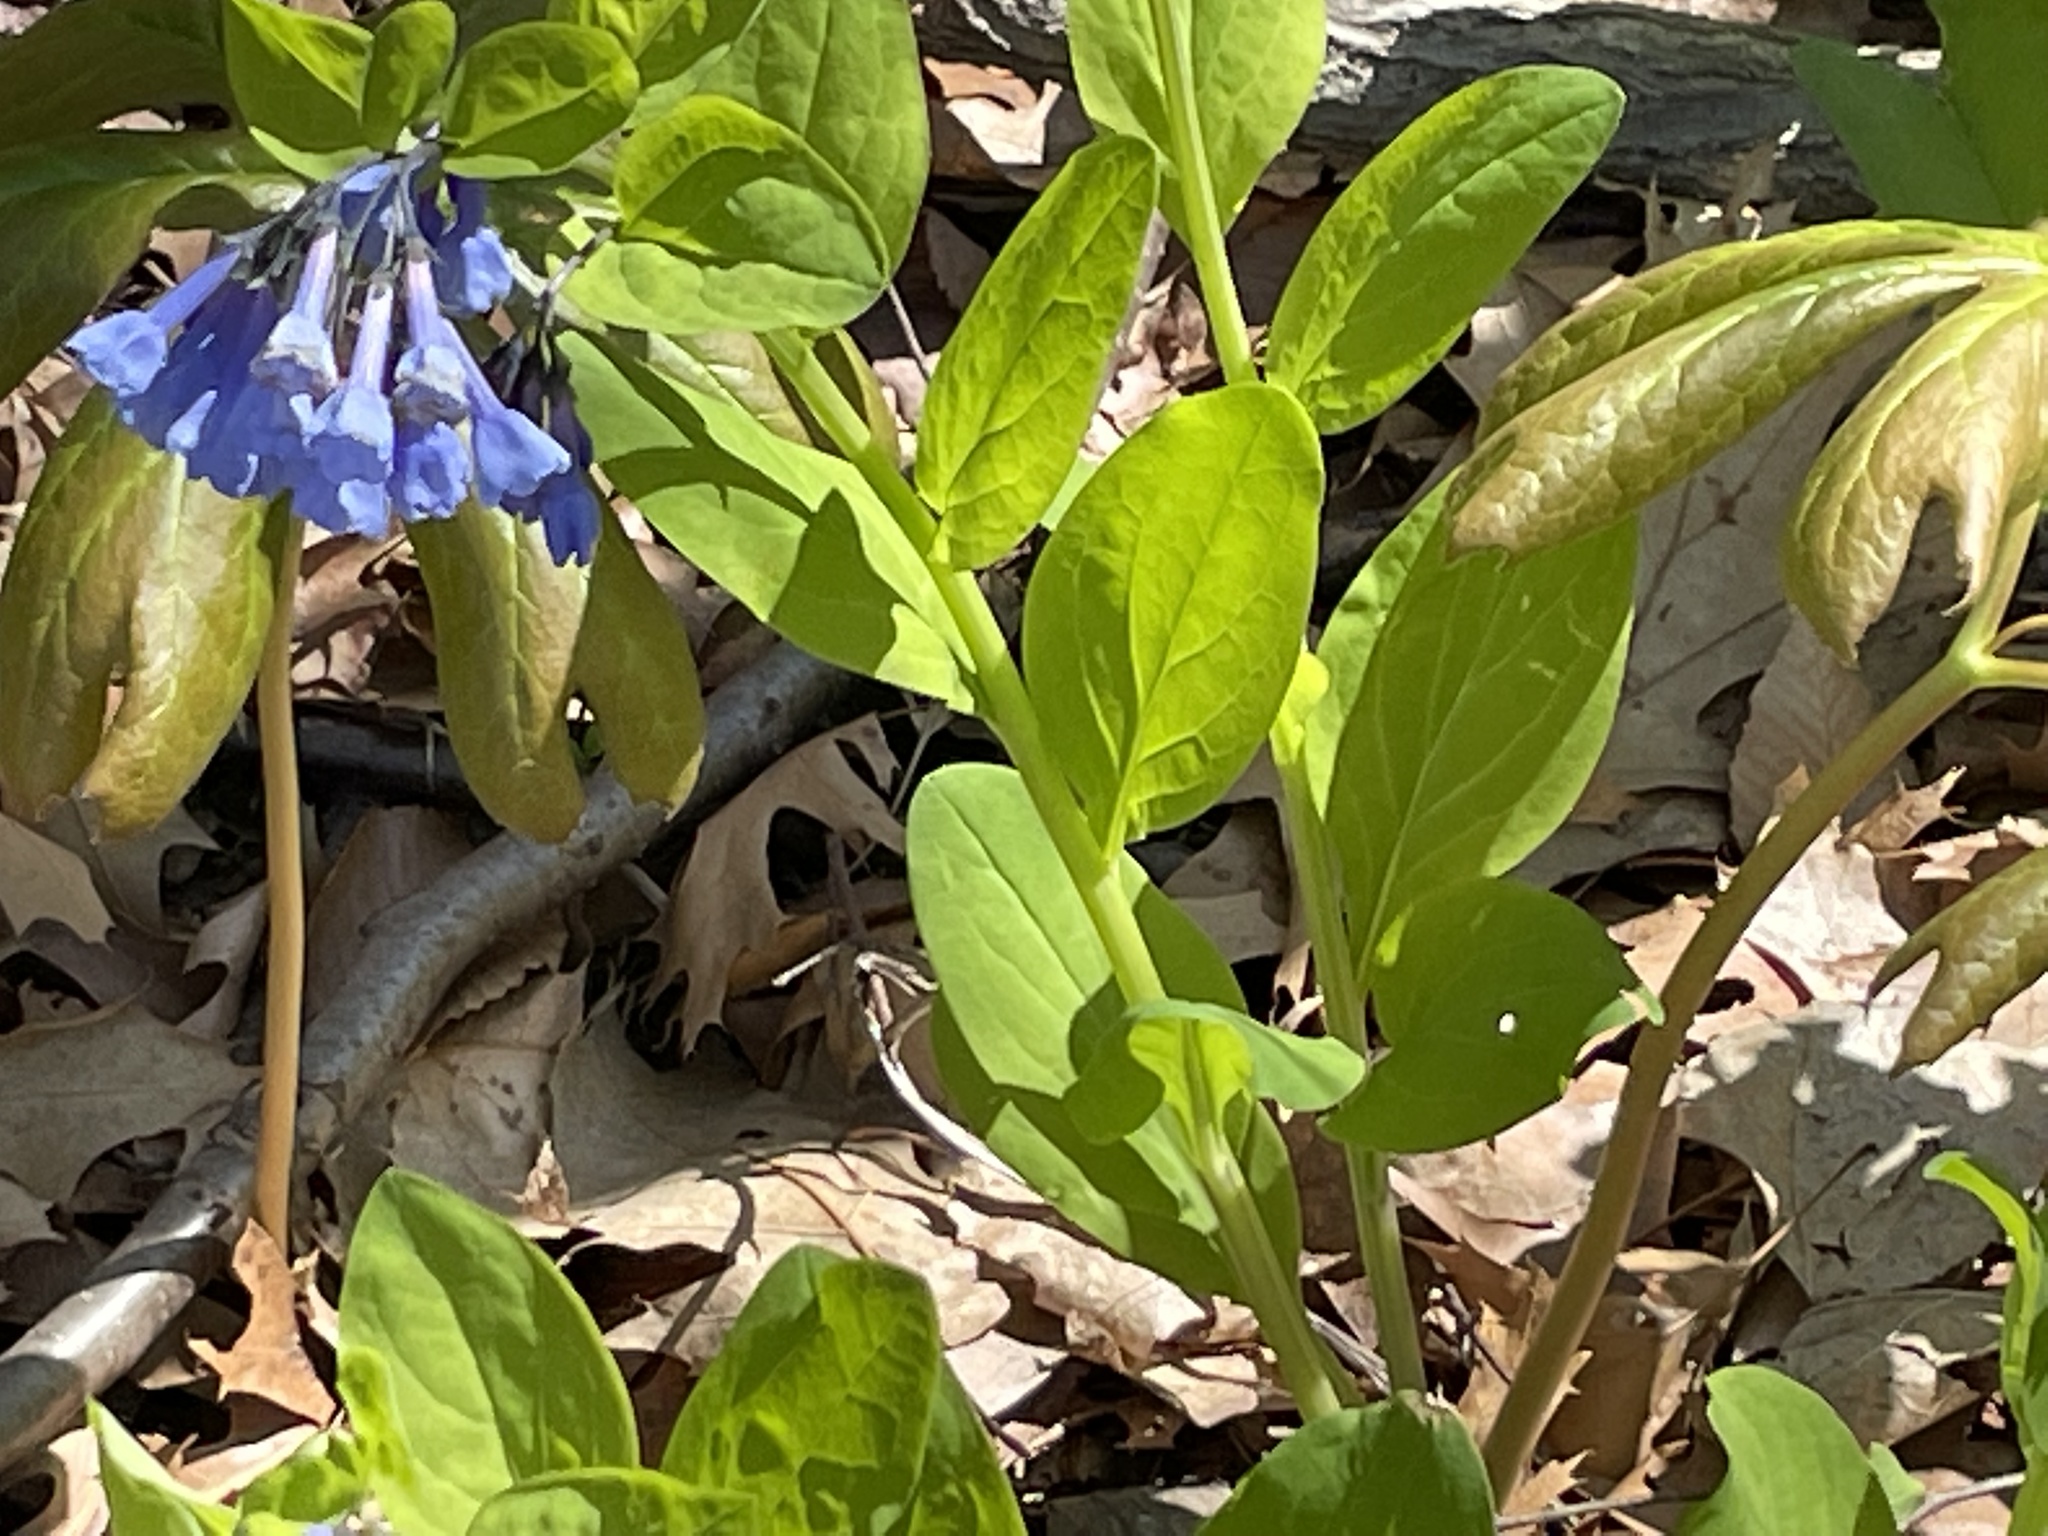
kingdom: Plantae
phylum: Tracheophyta
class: Magnoliopsida
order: Boraginales
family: Boraginaceae
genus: Mertensia
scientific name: Mertensia virginica
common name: Virginia bluebells
